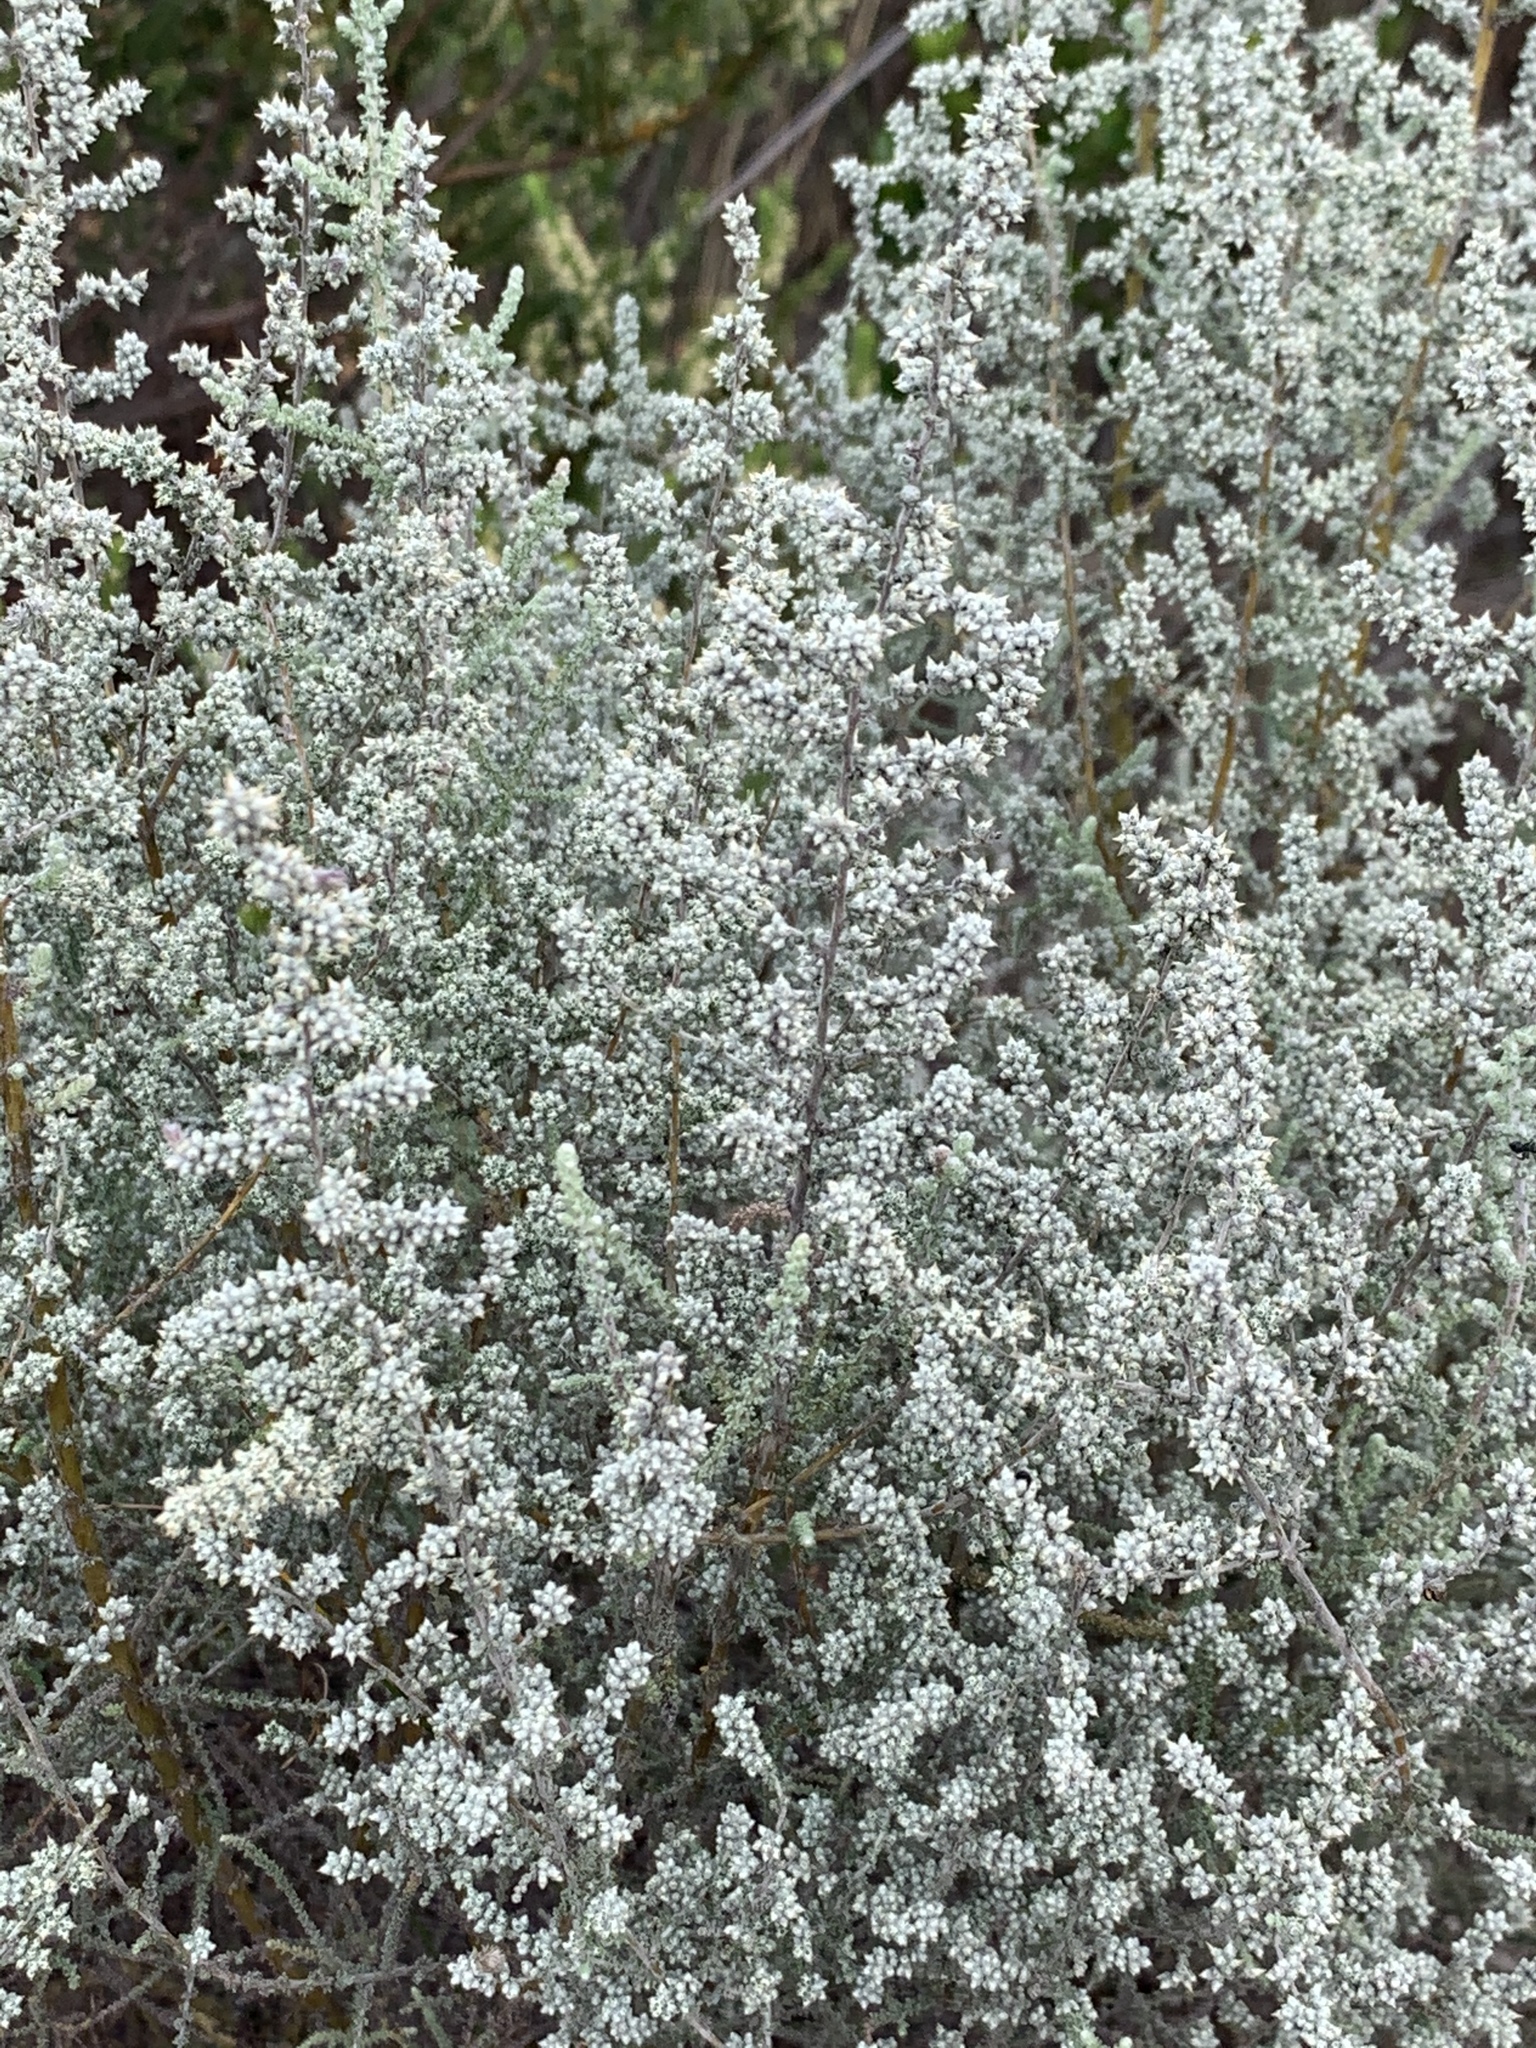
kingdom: Plantae
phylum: Tracheophyta
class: Magnoliopsida
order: Asterales
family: Asteraceae
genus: Seriphium
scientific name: Seriphium plumosum
